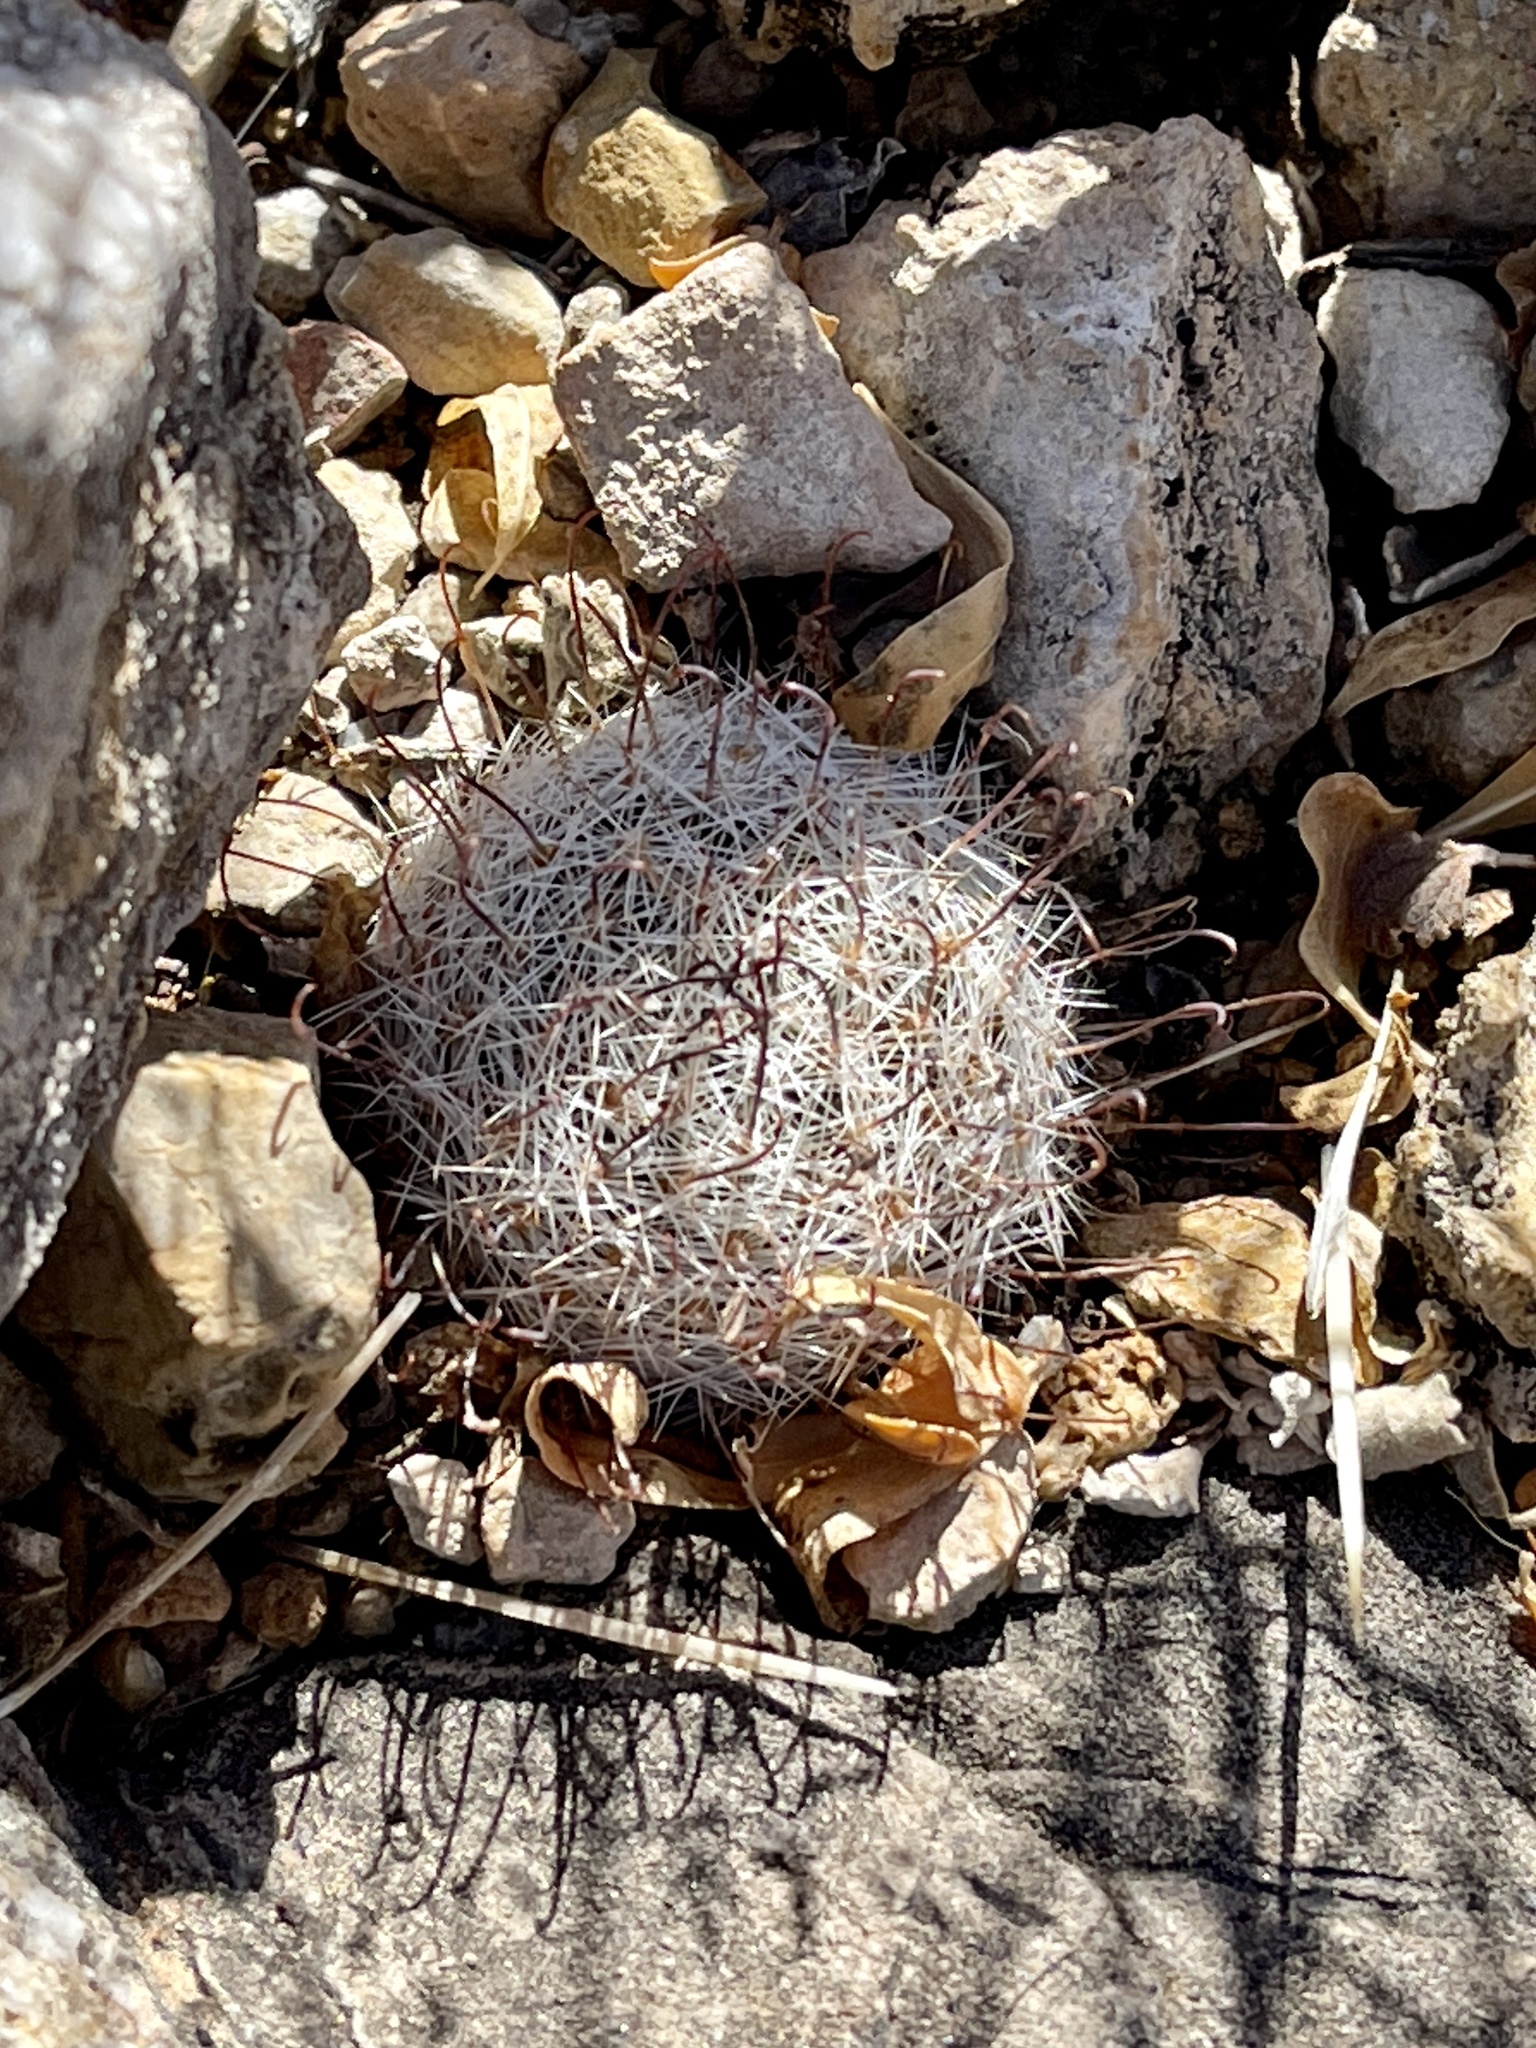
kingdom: Plantae
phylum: Tracheophyta
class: Magnoliopsida
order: Caryophyllales
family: Cactaceae
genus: Cochemiea
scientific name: Cochemiea grahamii
